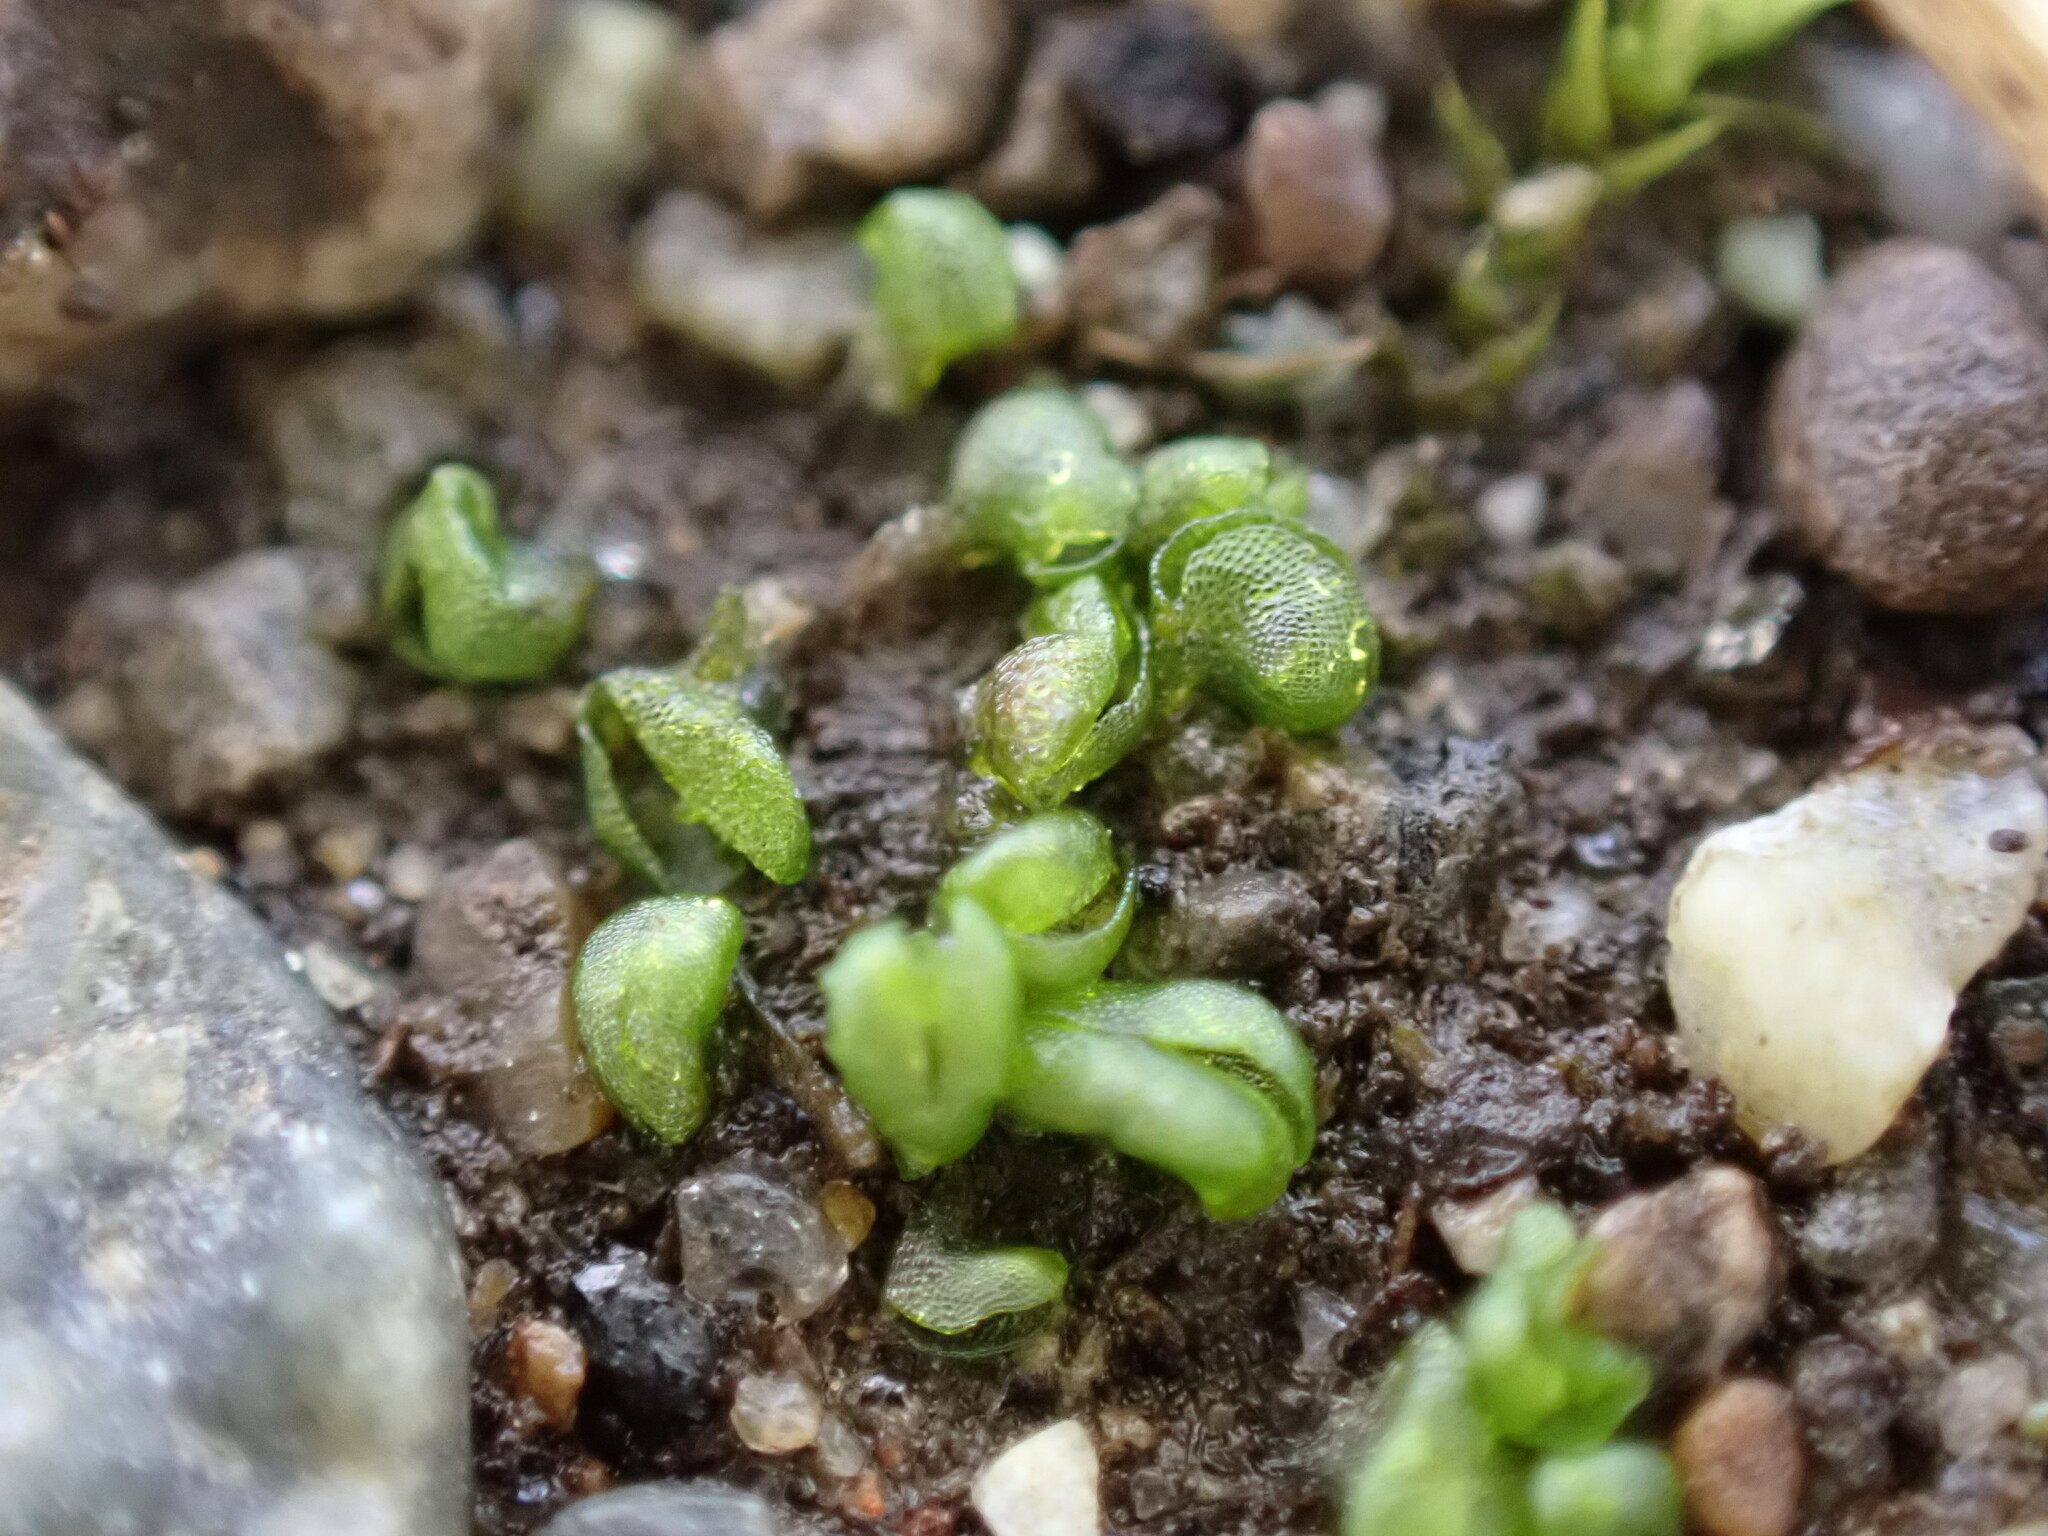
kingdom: Plantae
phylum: Marchantiophyta
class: Marchantiopsida
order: Sphaerocarpales
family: Sphaerocarpaceae
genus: Sphaerocarpos
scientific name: Sphaerocarpos texanus
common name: Texas balloonwort
